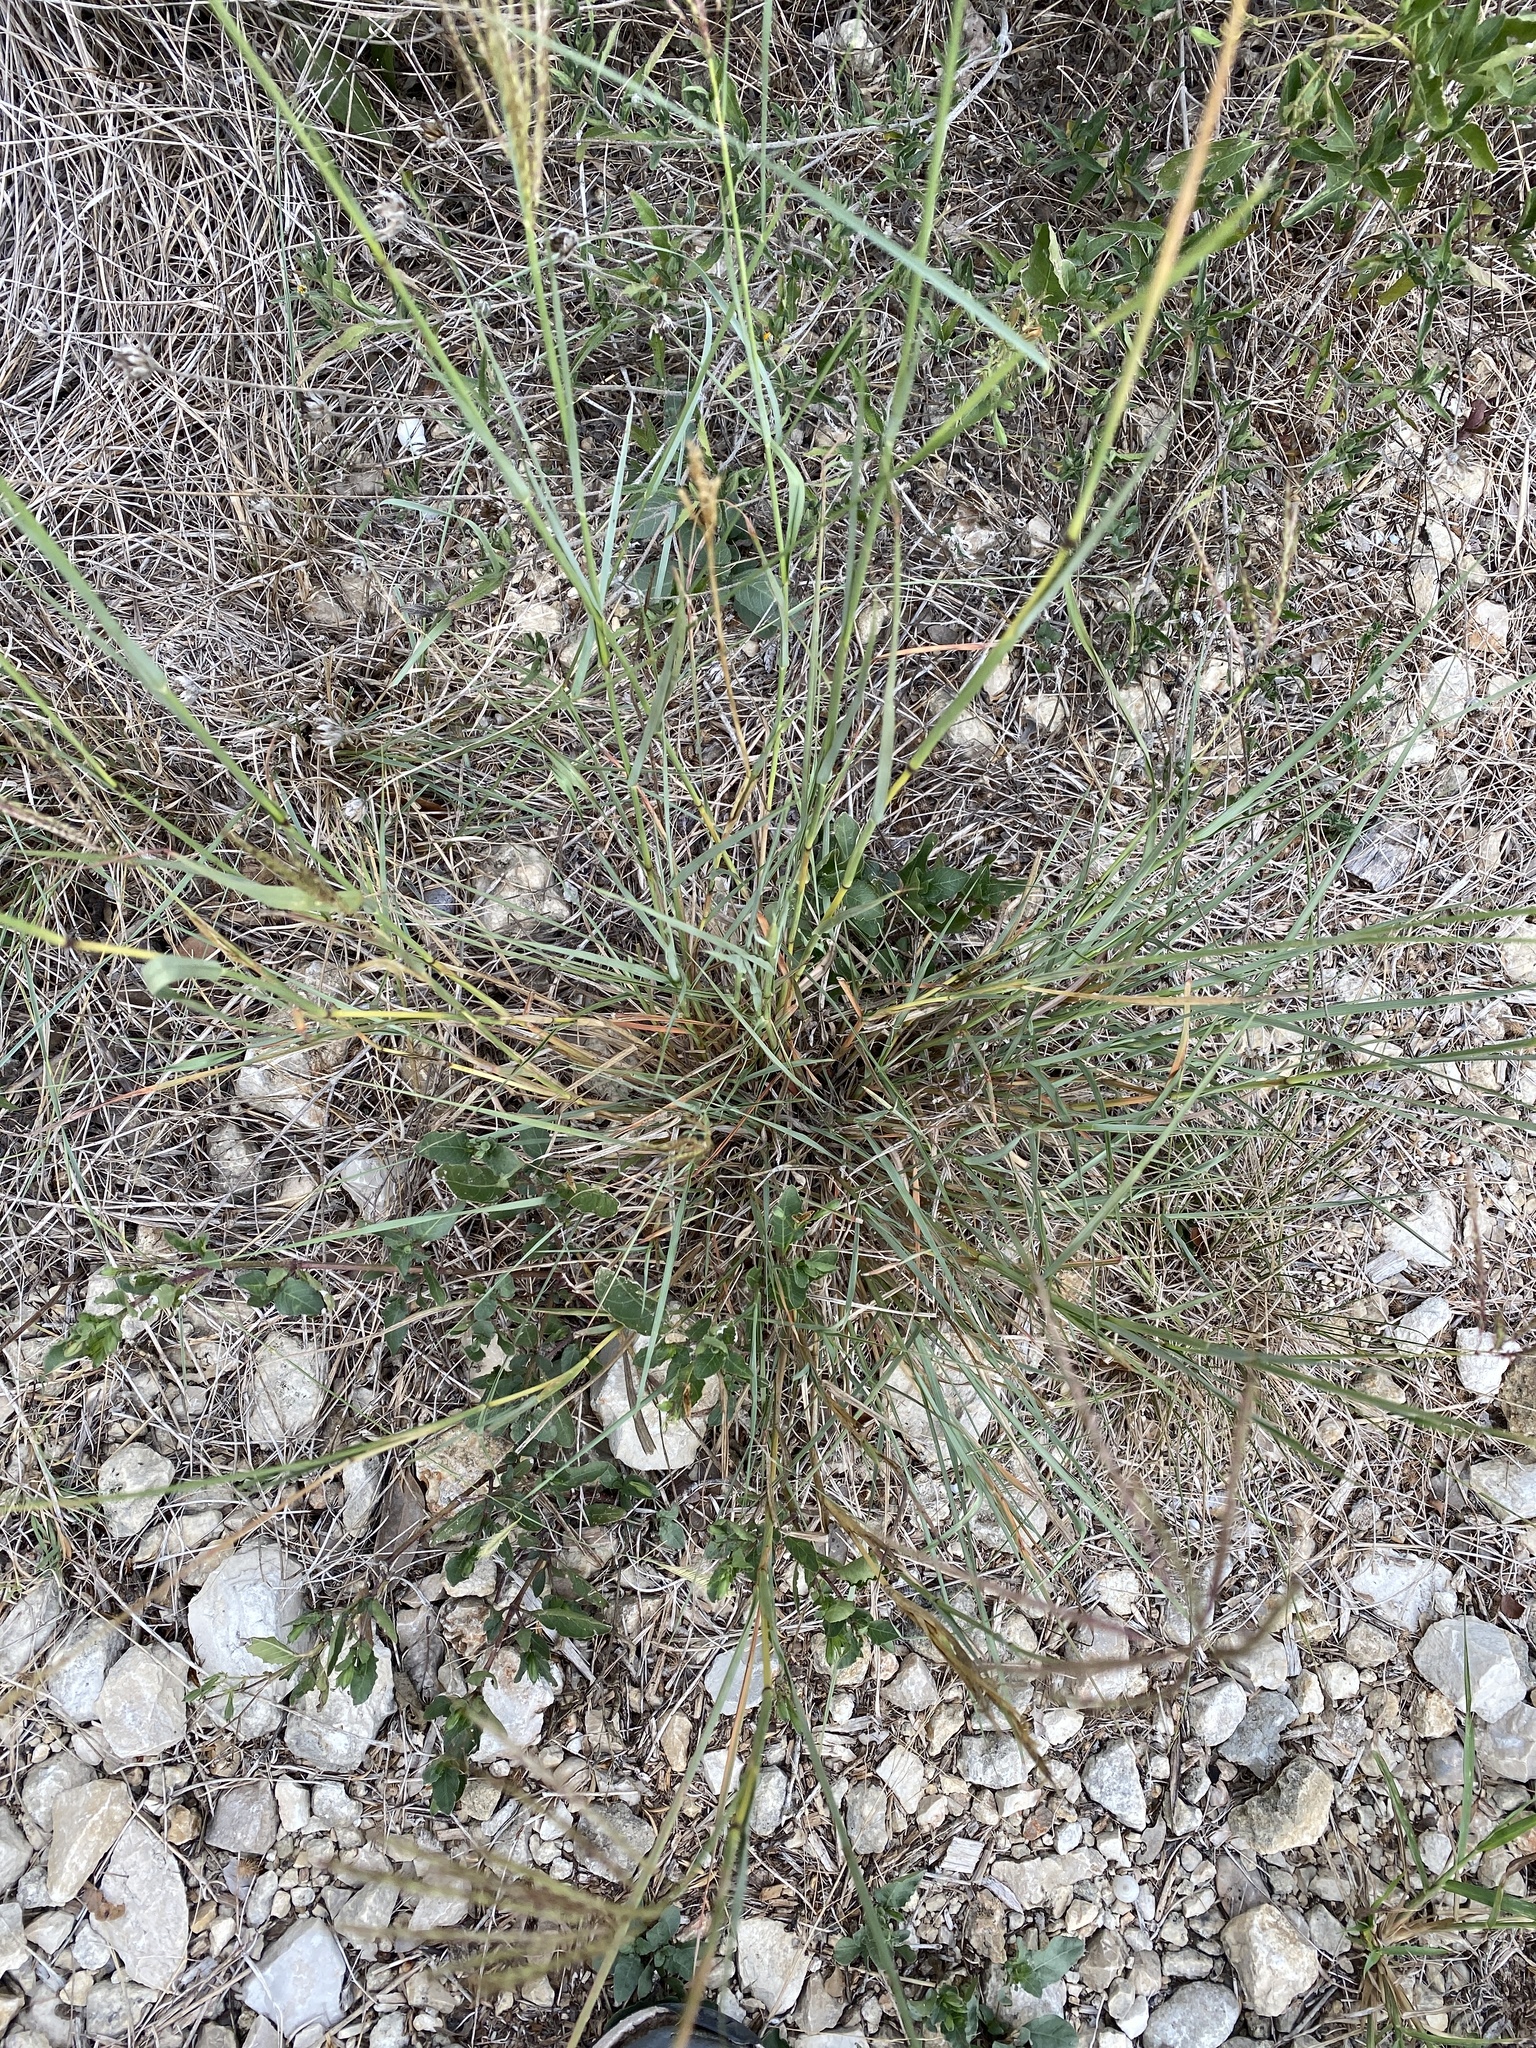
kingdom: Plantae
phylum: Tracheophyta
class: Liliopsida
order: Poales
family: Poaceae
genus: Bothriochloa
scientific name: Bothriochloa ischaemum
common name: Yellow bluestem
